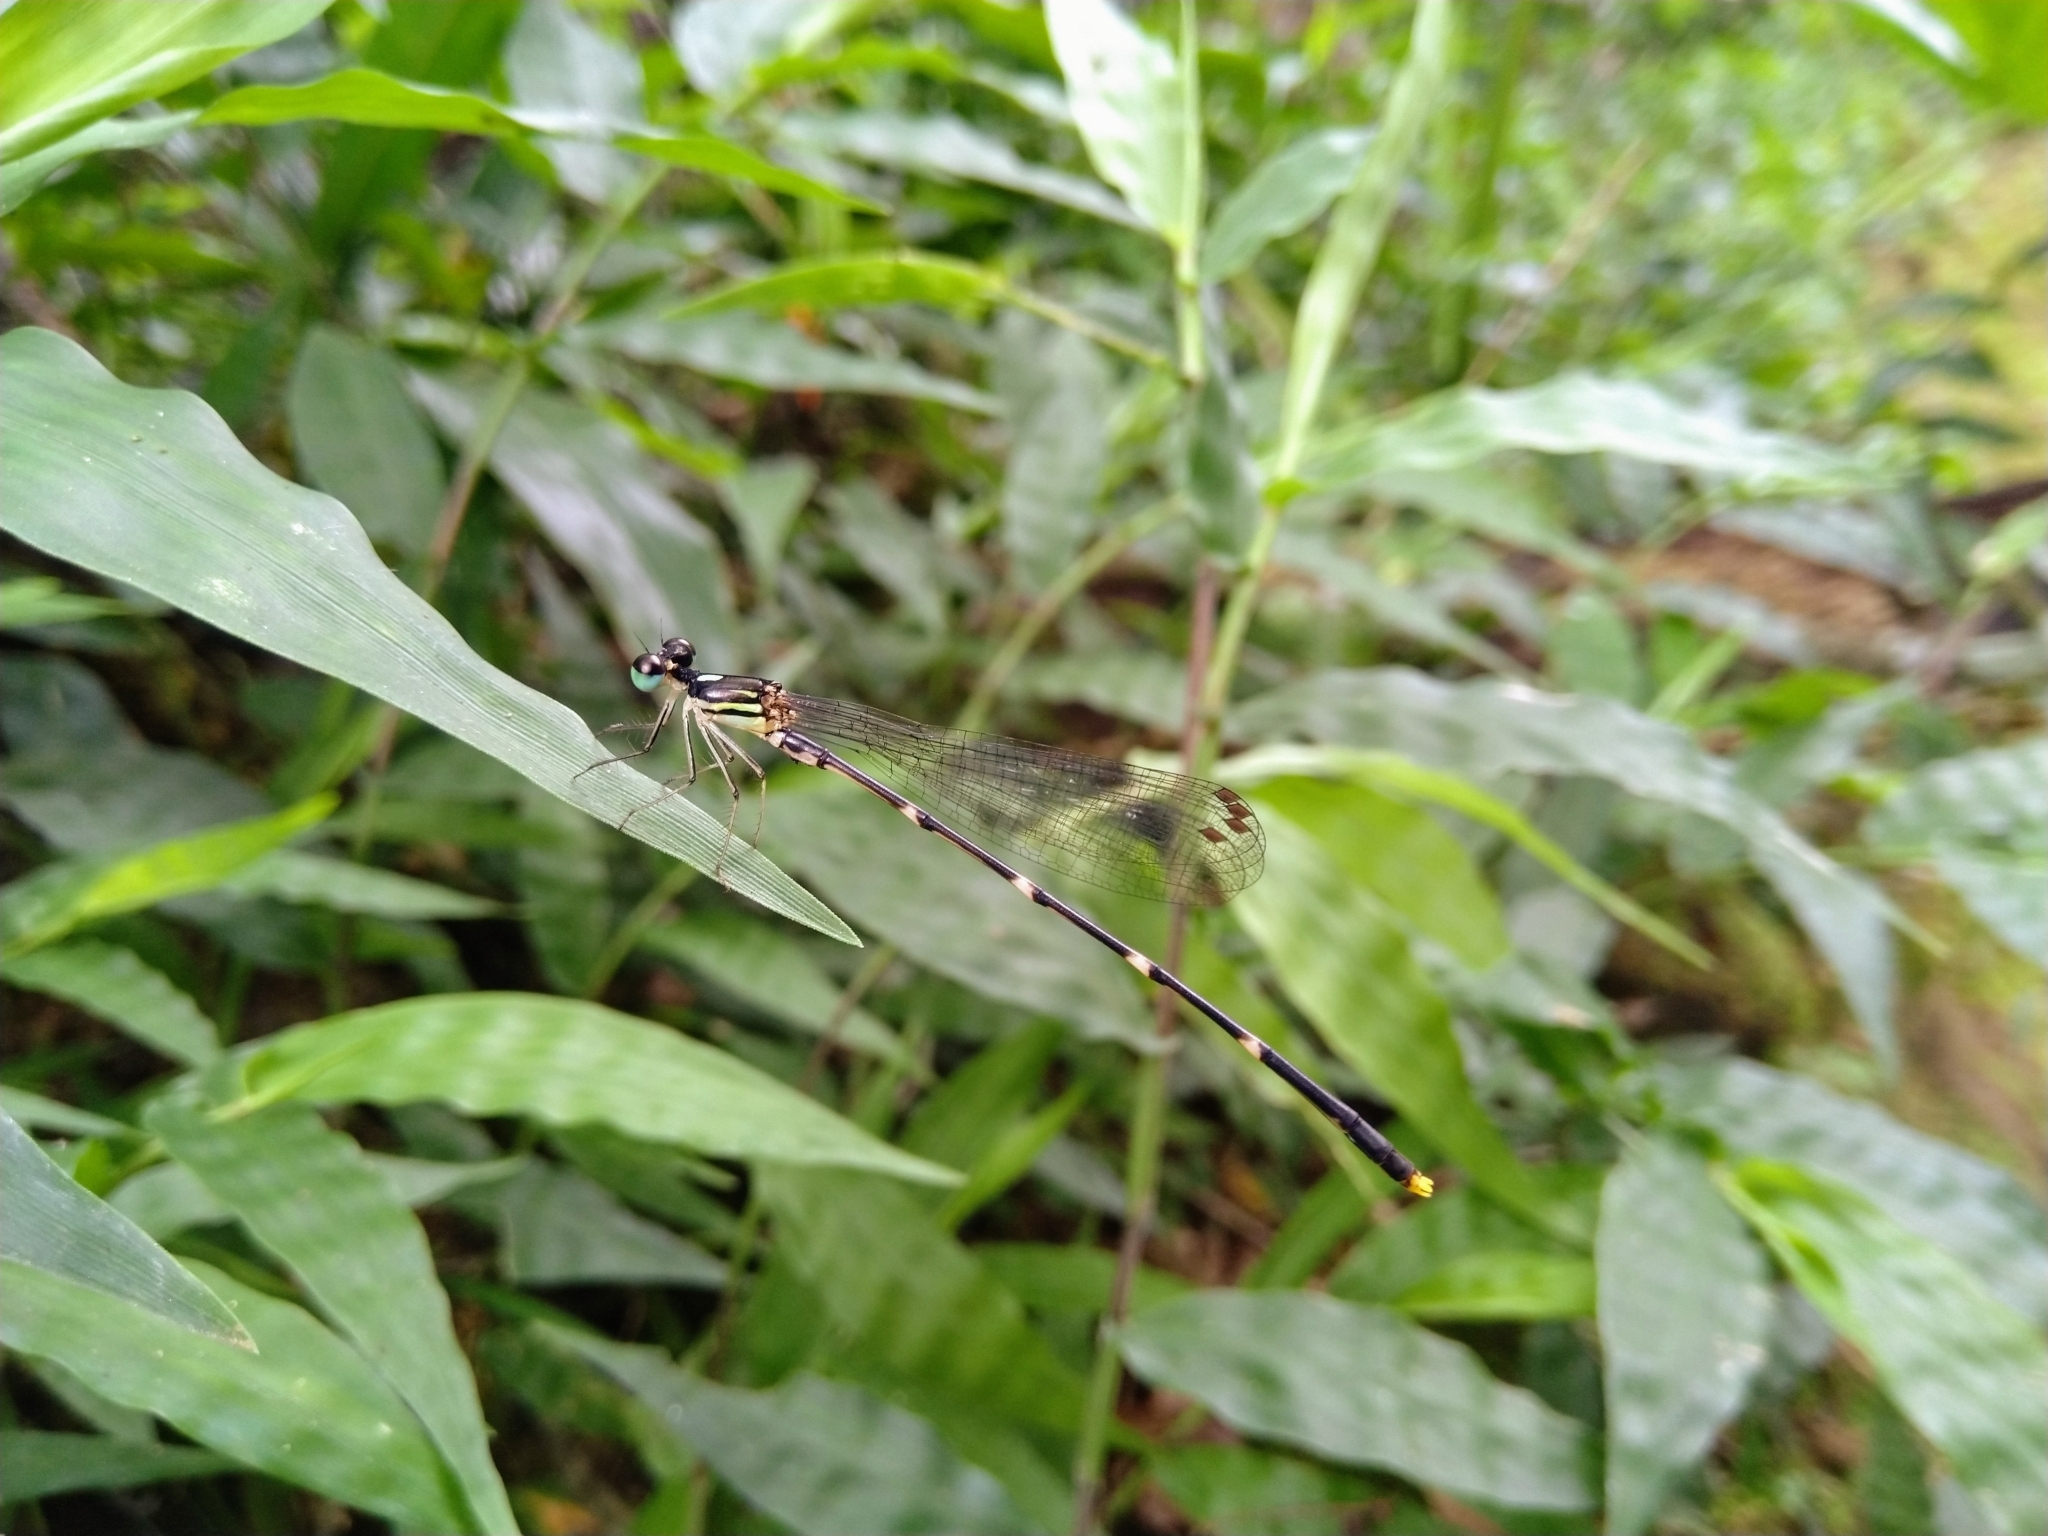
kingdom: Animalia
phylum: Arthropoda
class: Insecta
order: Odonata
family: Platycnemididae
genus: Coeliccia
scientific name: Coeliccia flavicauda
